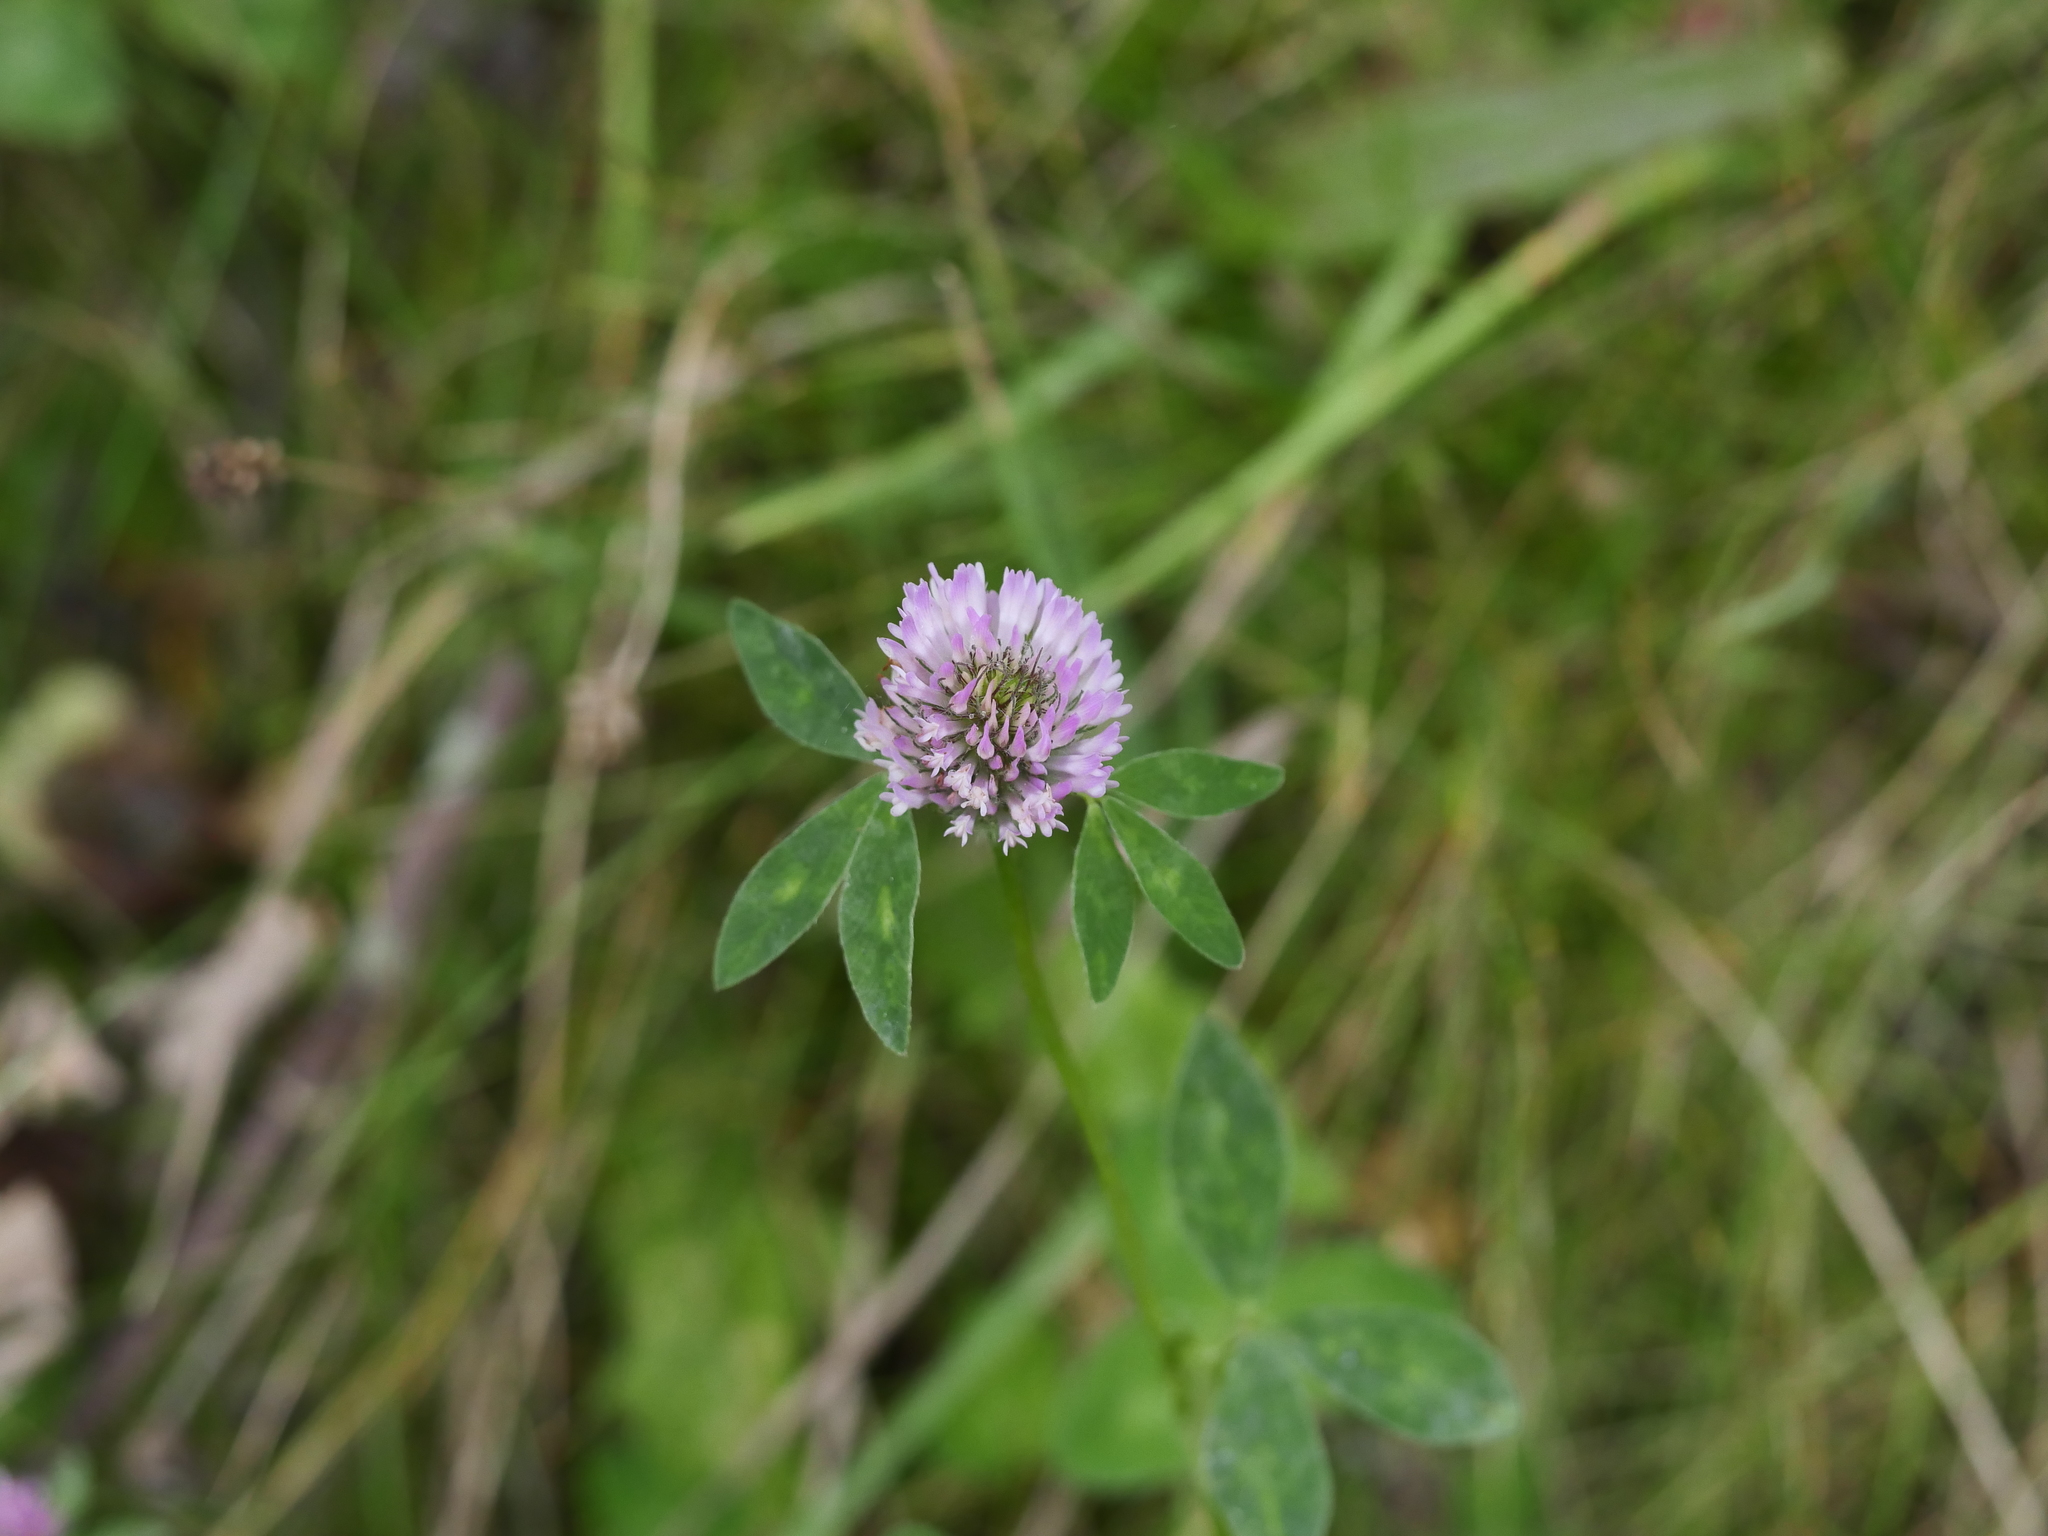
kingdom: Plantae
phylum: Tracheophyta
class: Magnoliopsida
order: Fabales
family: Fabaceae
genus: Trifolium
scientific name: Trifolium pratense
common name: Red clover
